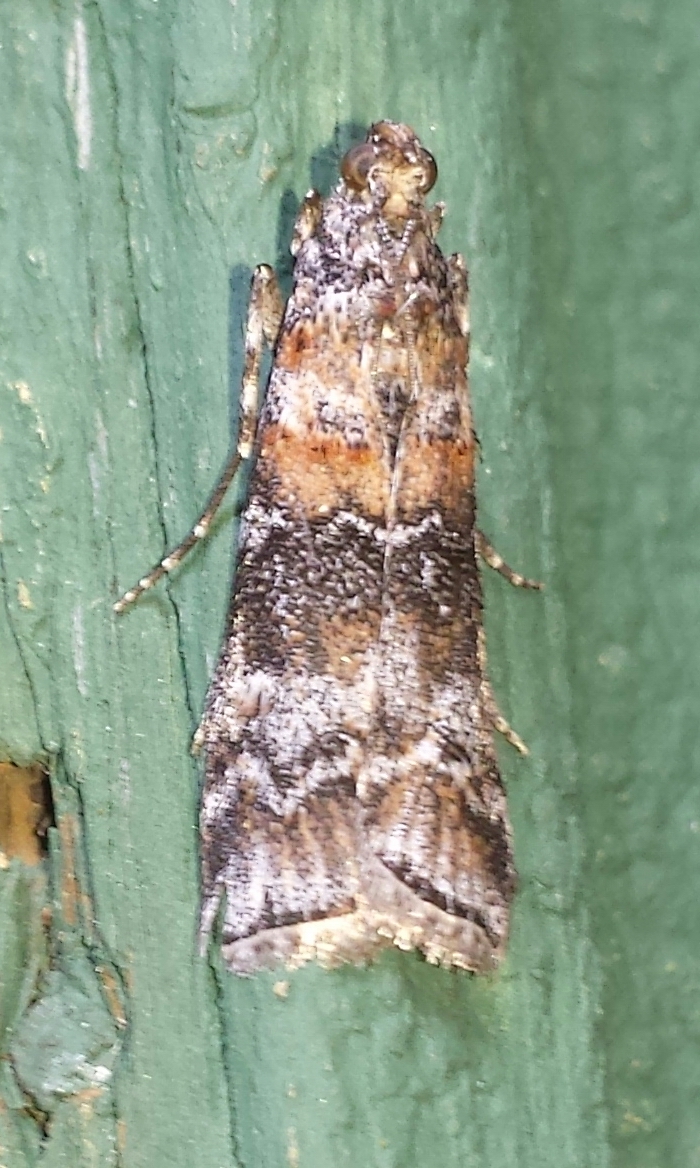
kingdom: Animalia
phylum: Arthropoda
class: Insecta
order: Lepidoptera
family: Pyralidae
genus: Dioryctria
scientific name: Dioryctria zimmermani
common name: Zimmerman pine moth
